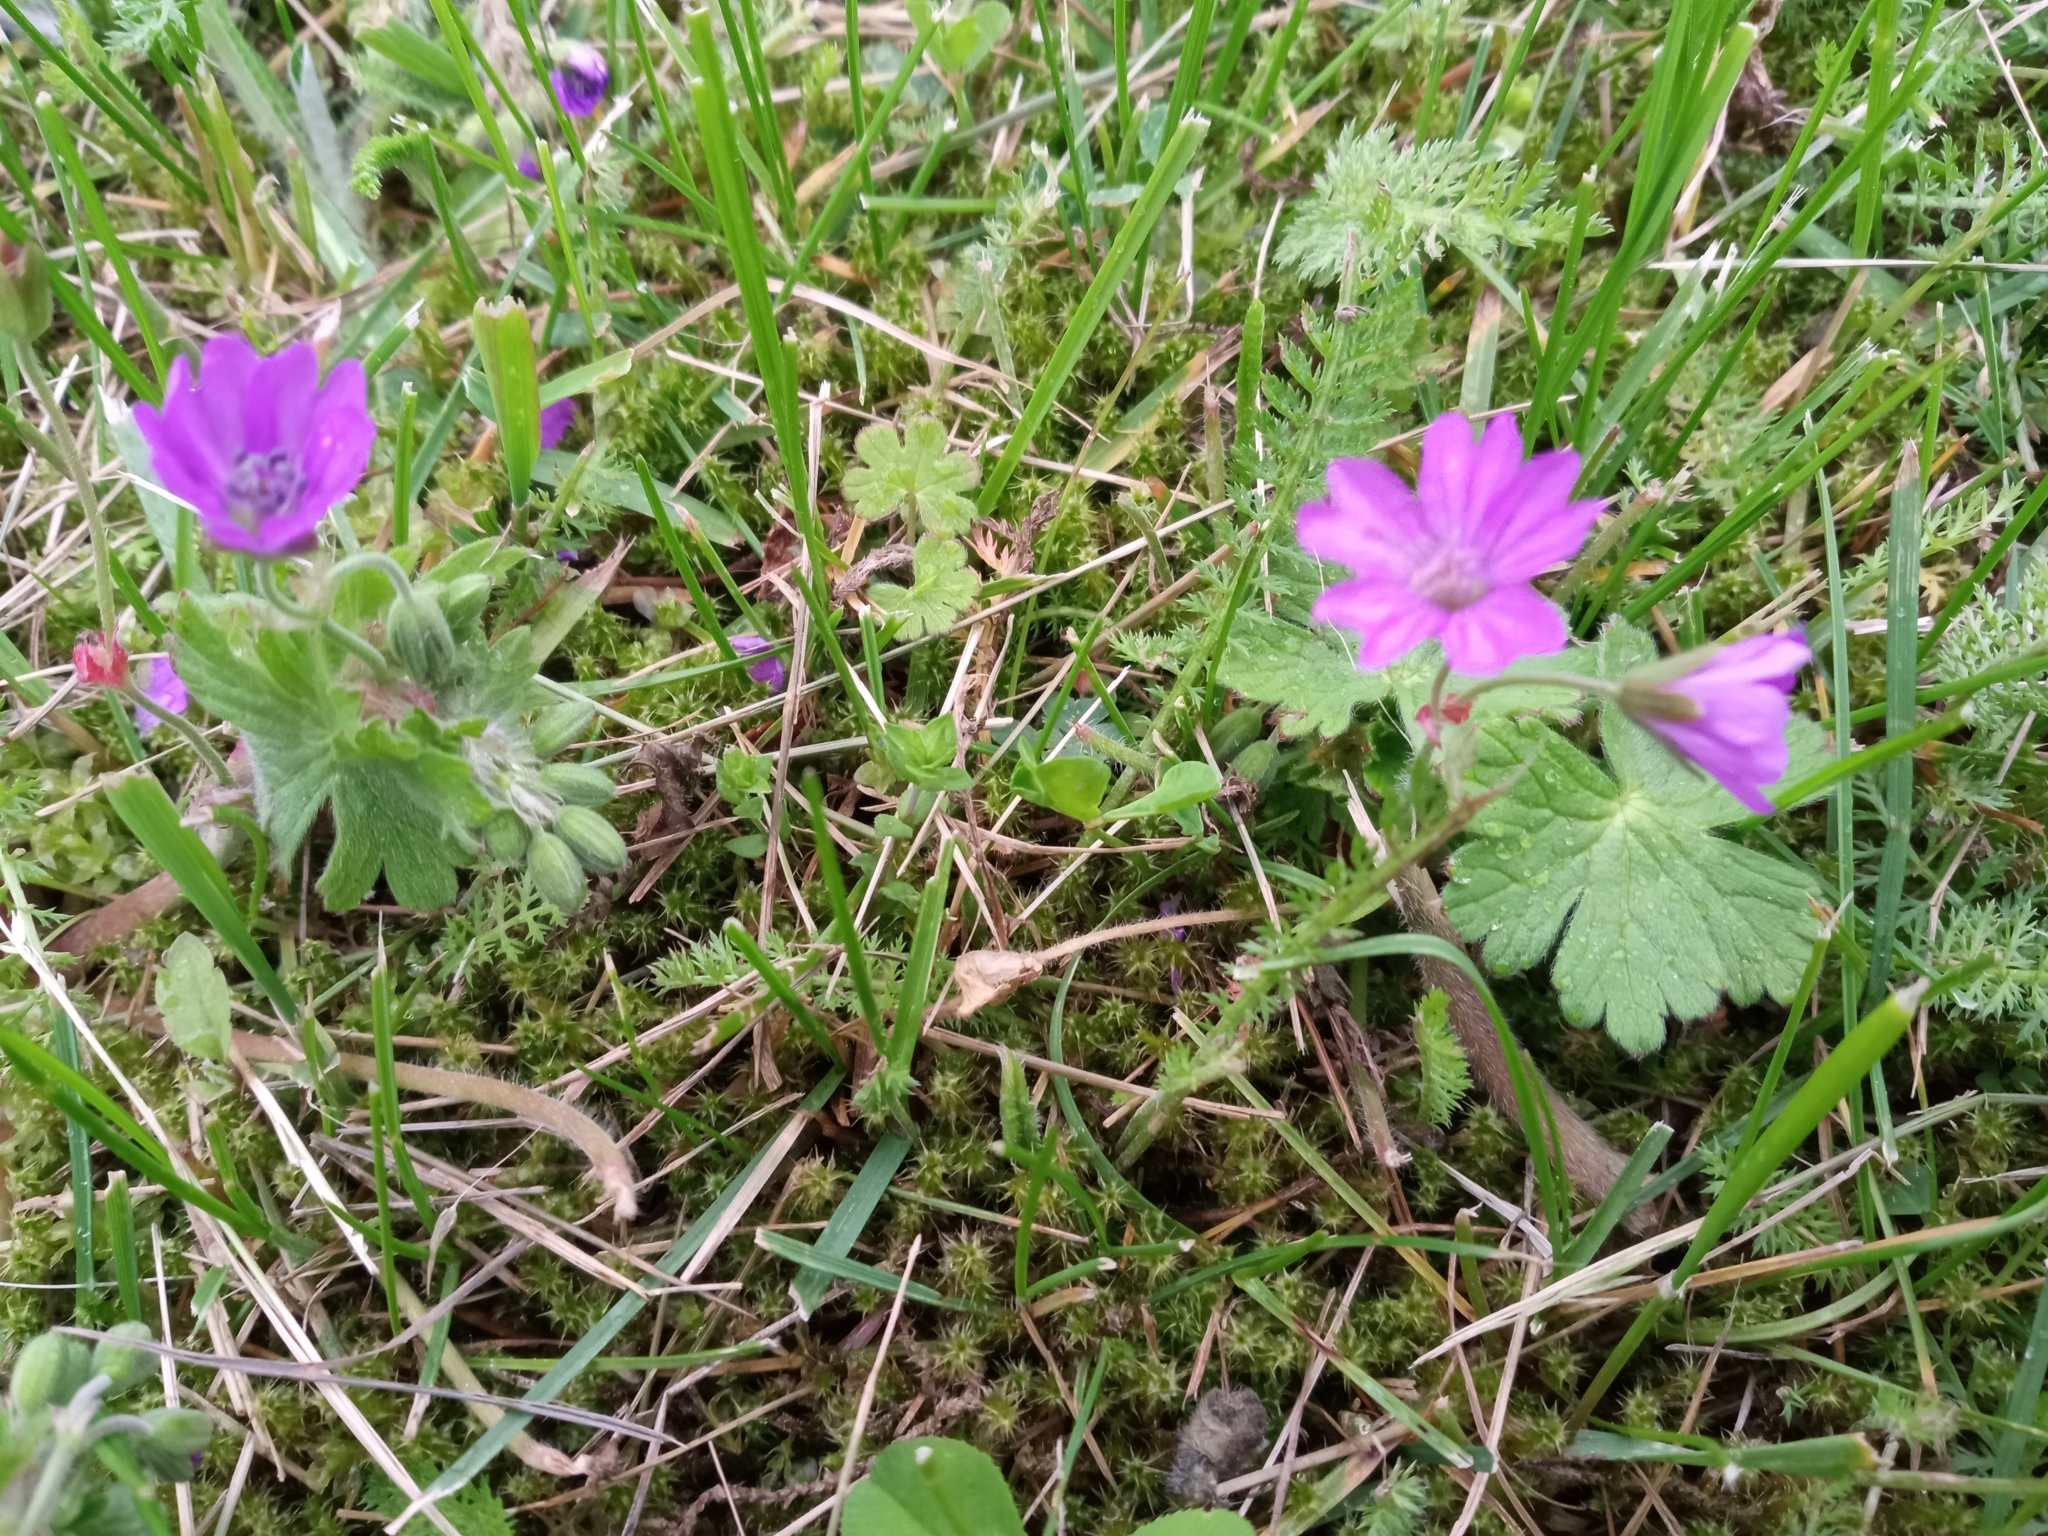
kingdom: Plantae
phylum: Tracheophyta
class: Magnoliopsida
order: Geraniales
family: Geraniaceae
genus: Geranium
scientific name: Geranium pyrenaicum
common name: Hedgerow crane's-bill
